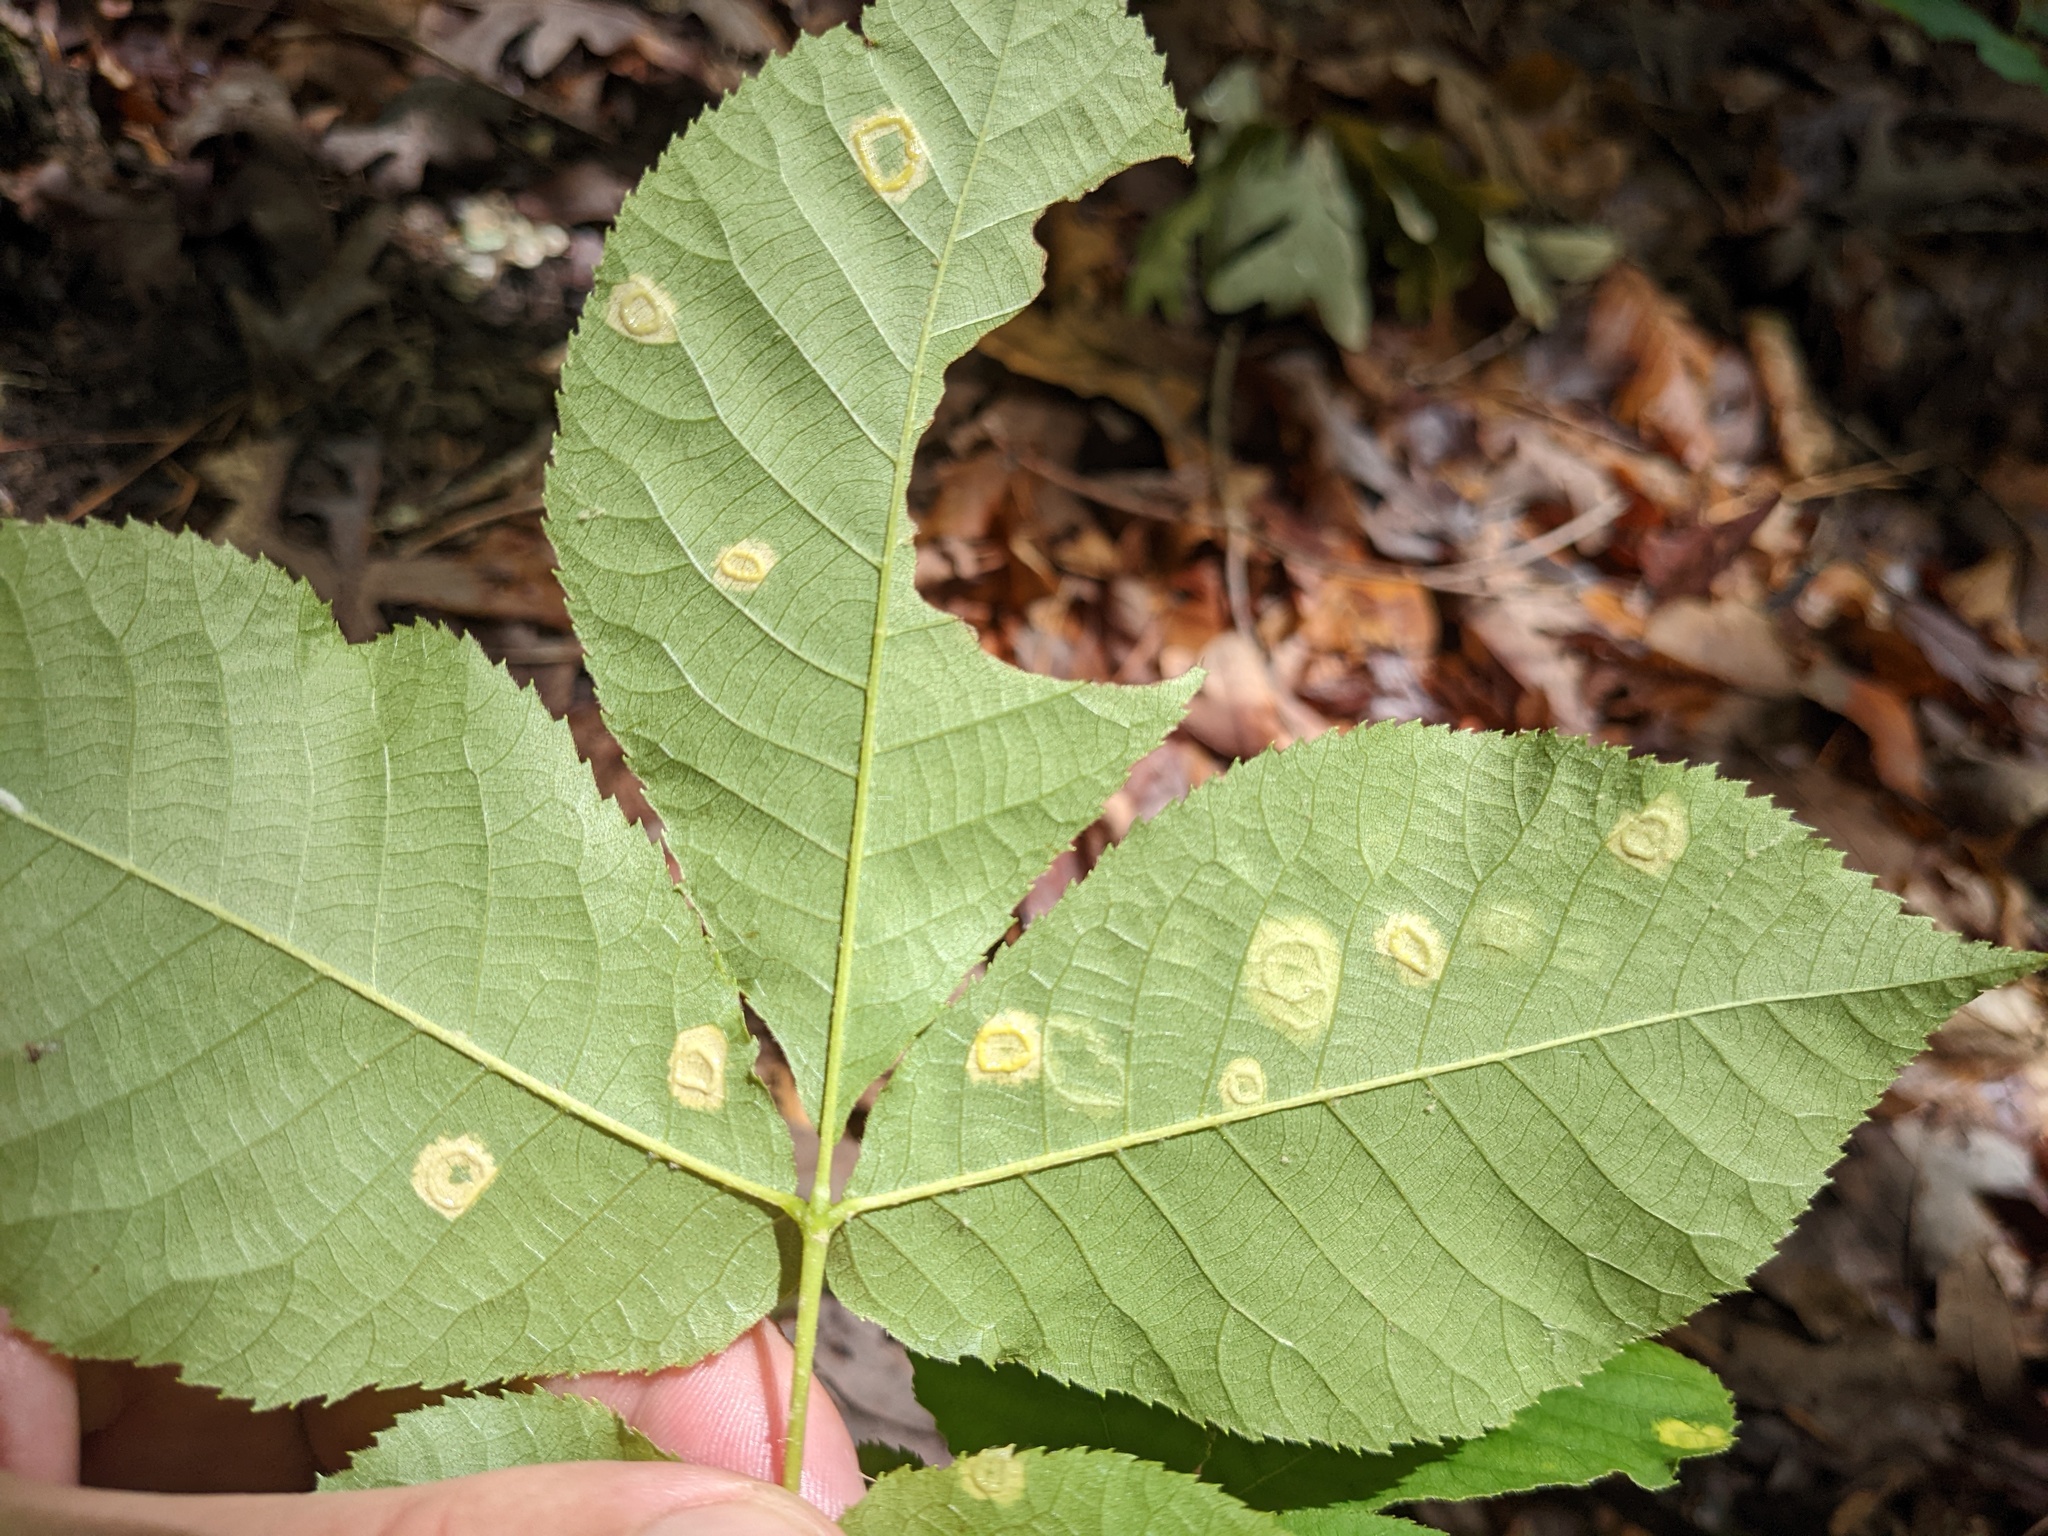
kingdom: Animalia
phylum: Arthropoda
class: Insecta
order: Diptera
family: Cecidomyiidae
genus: Gliaspilota
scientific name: Gliaspilota glutinosa
